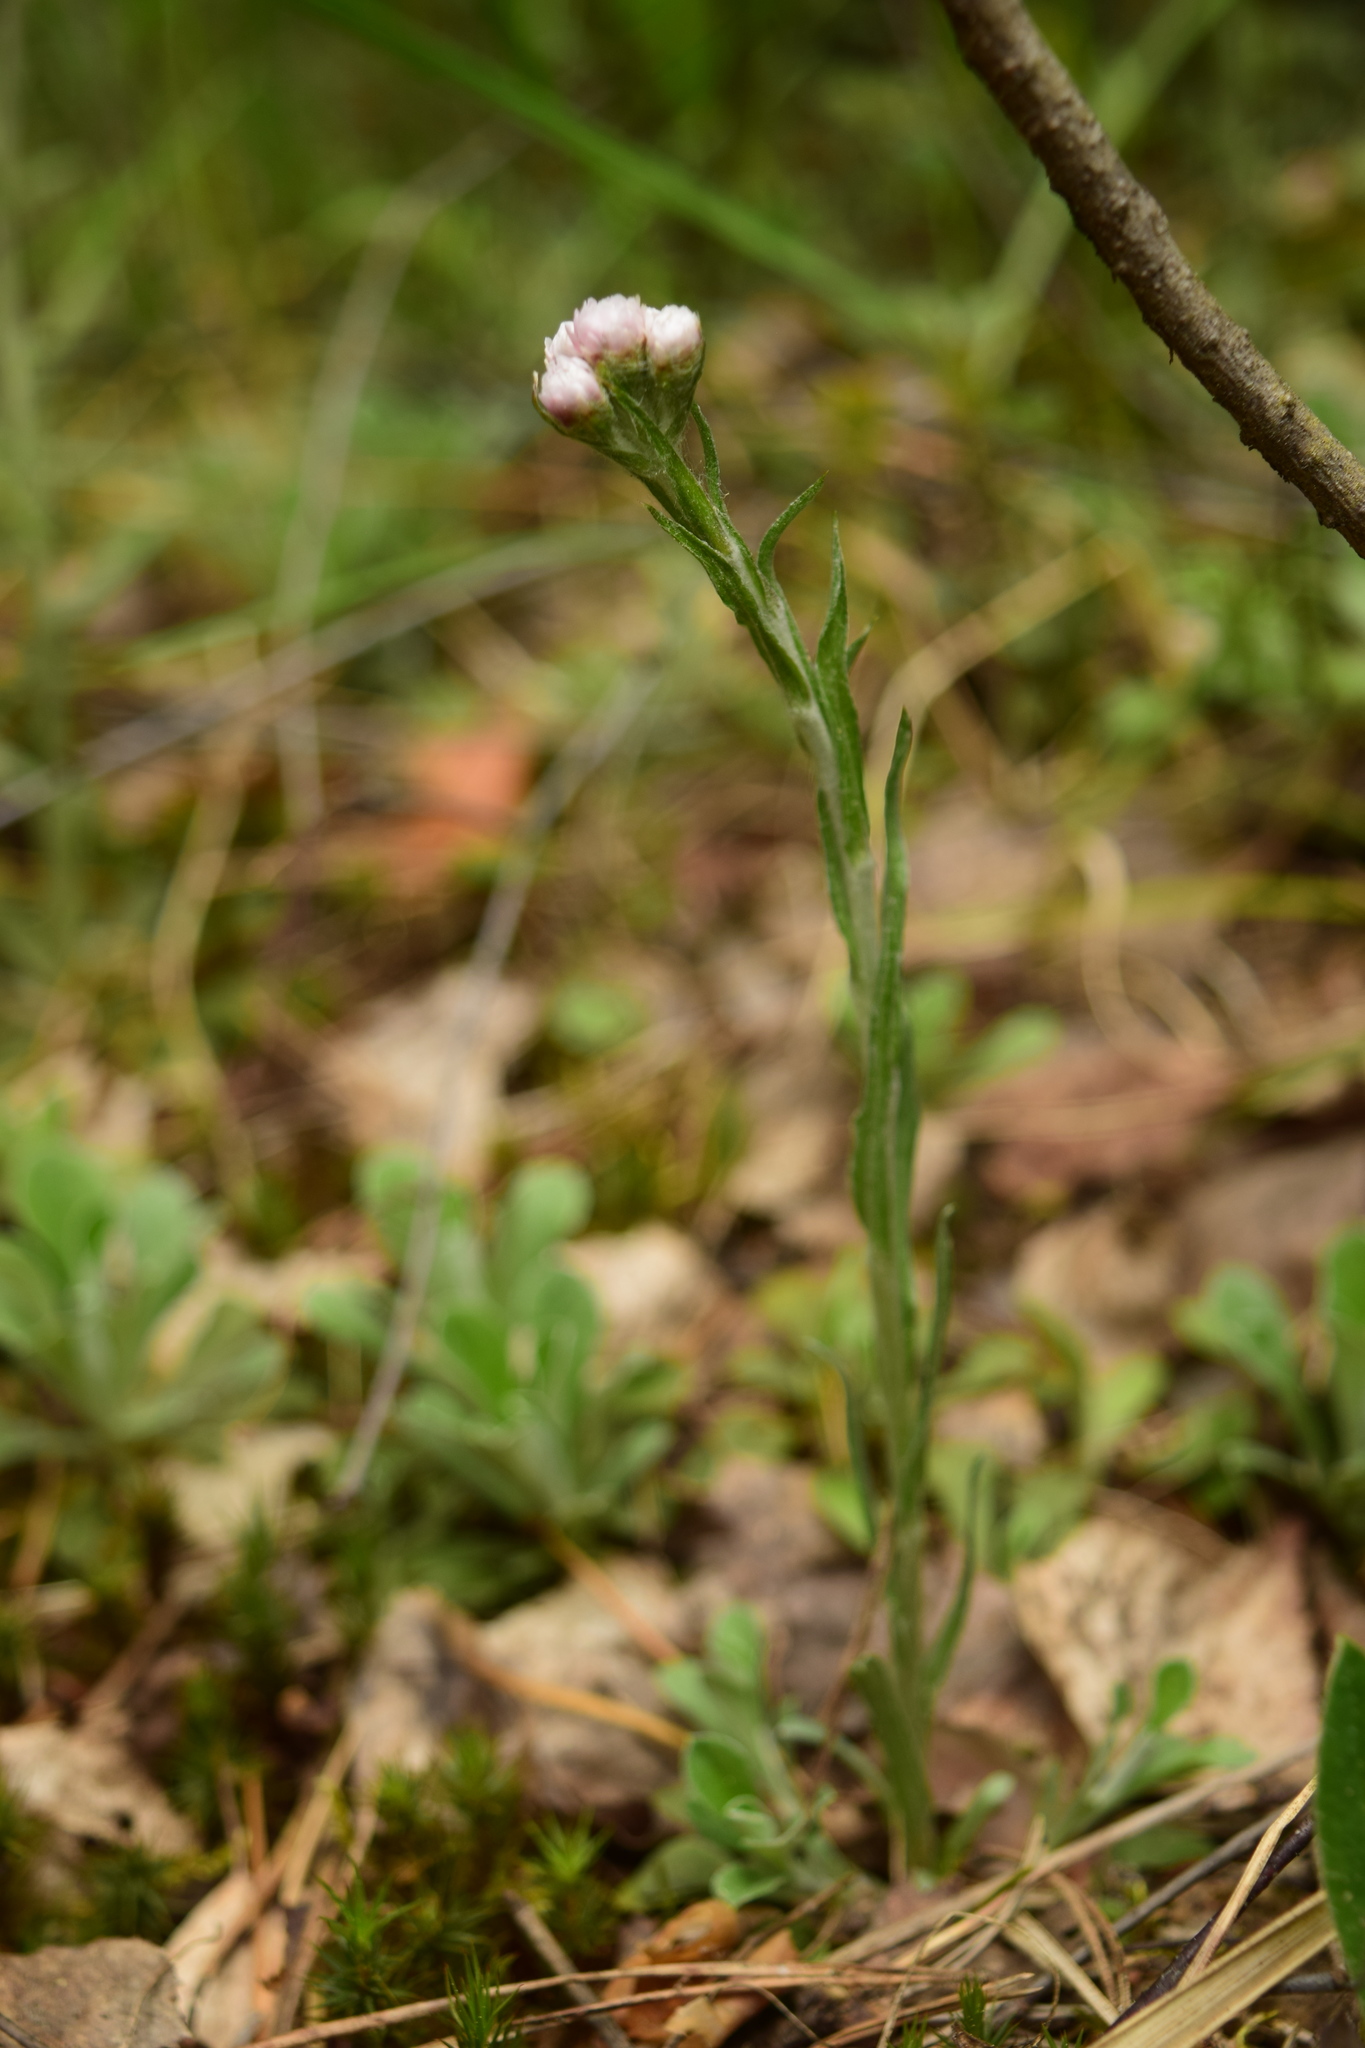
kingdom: Plantae
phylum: Tracheophyta
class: Magnoliopsida
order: Asterales
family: Asteraceae
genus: Antennaria
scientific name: Antennaria dioica
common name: Mountain everlasting
